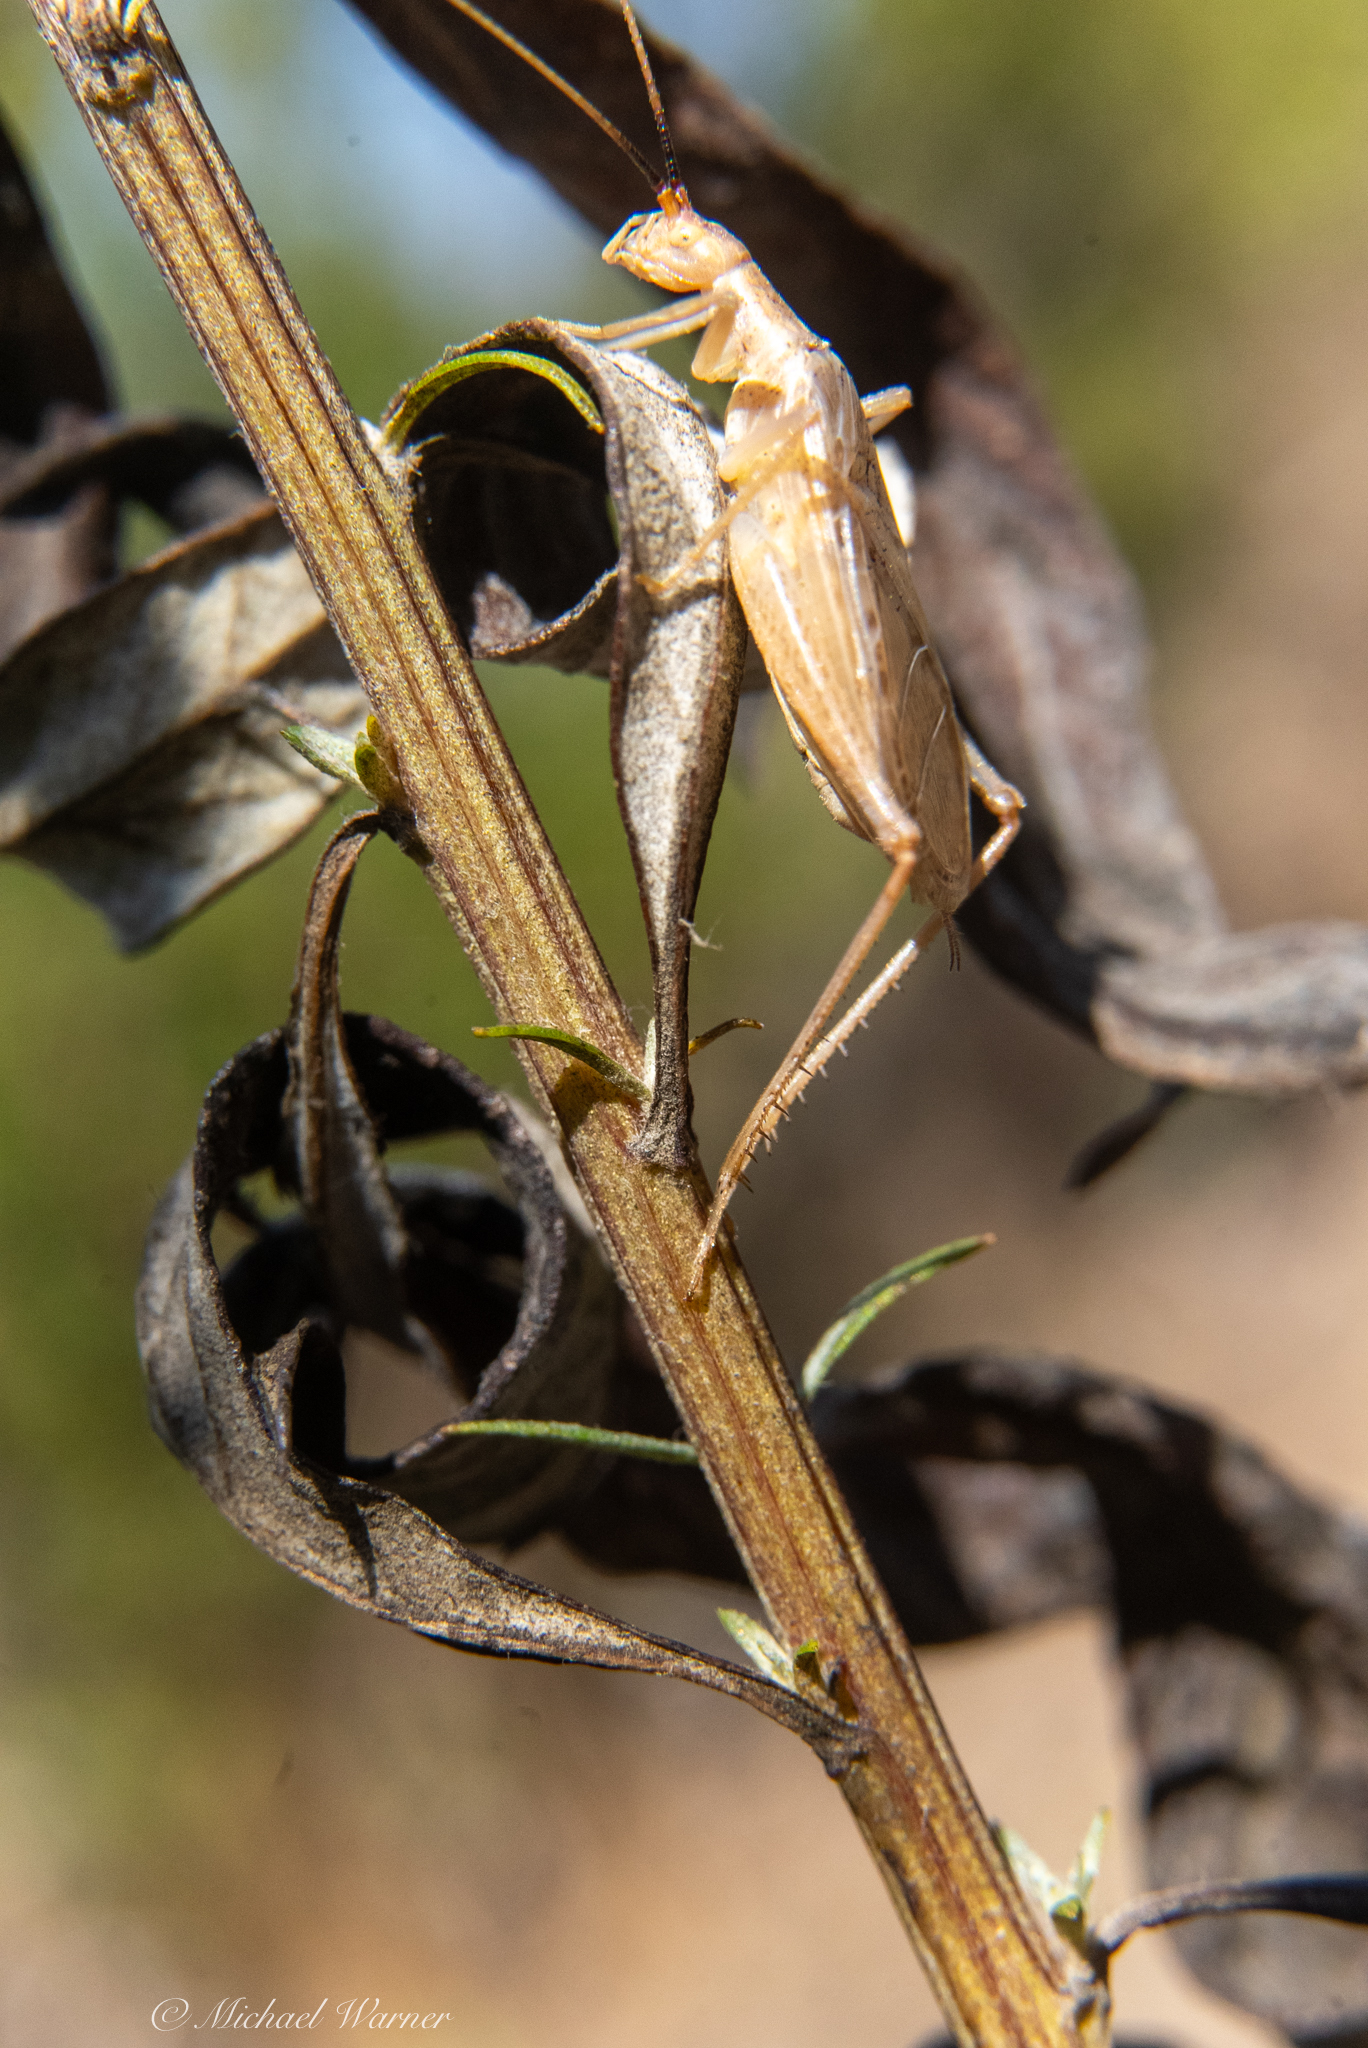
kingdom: Animalia
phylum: Arthropoda
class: Insecta
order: Orthoptera
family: Gryllidae
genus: Oecanthus
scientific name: Oecanthus californicus
